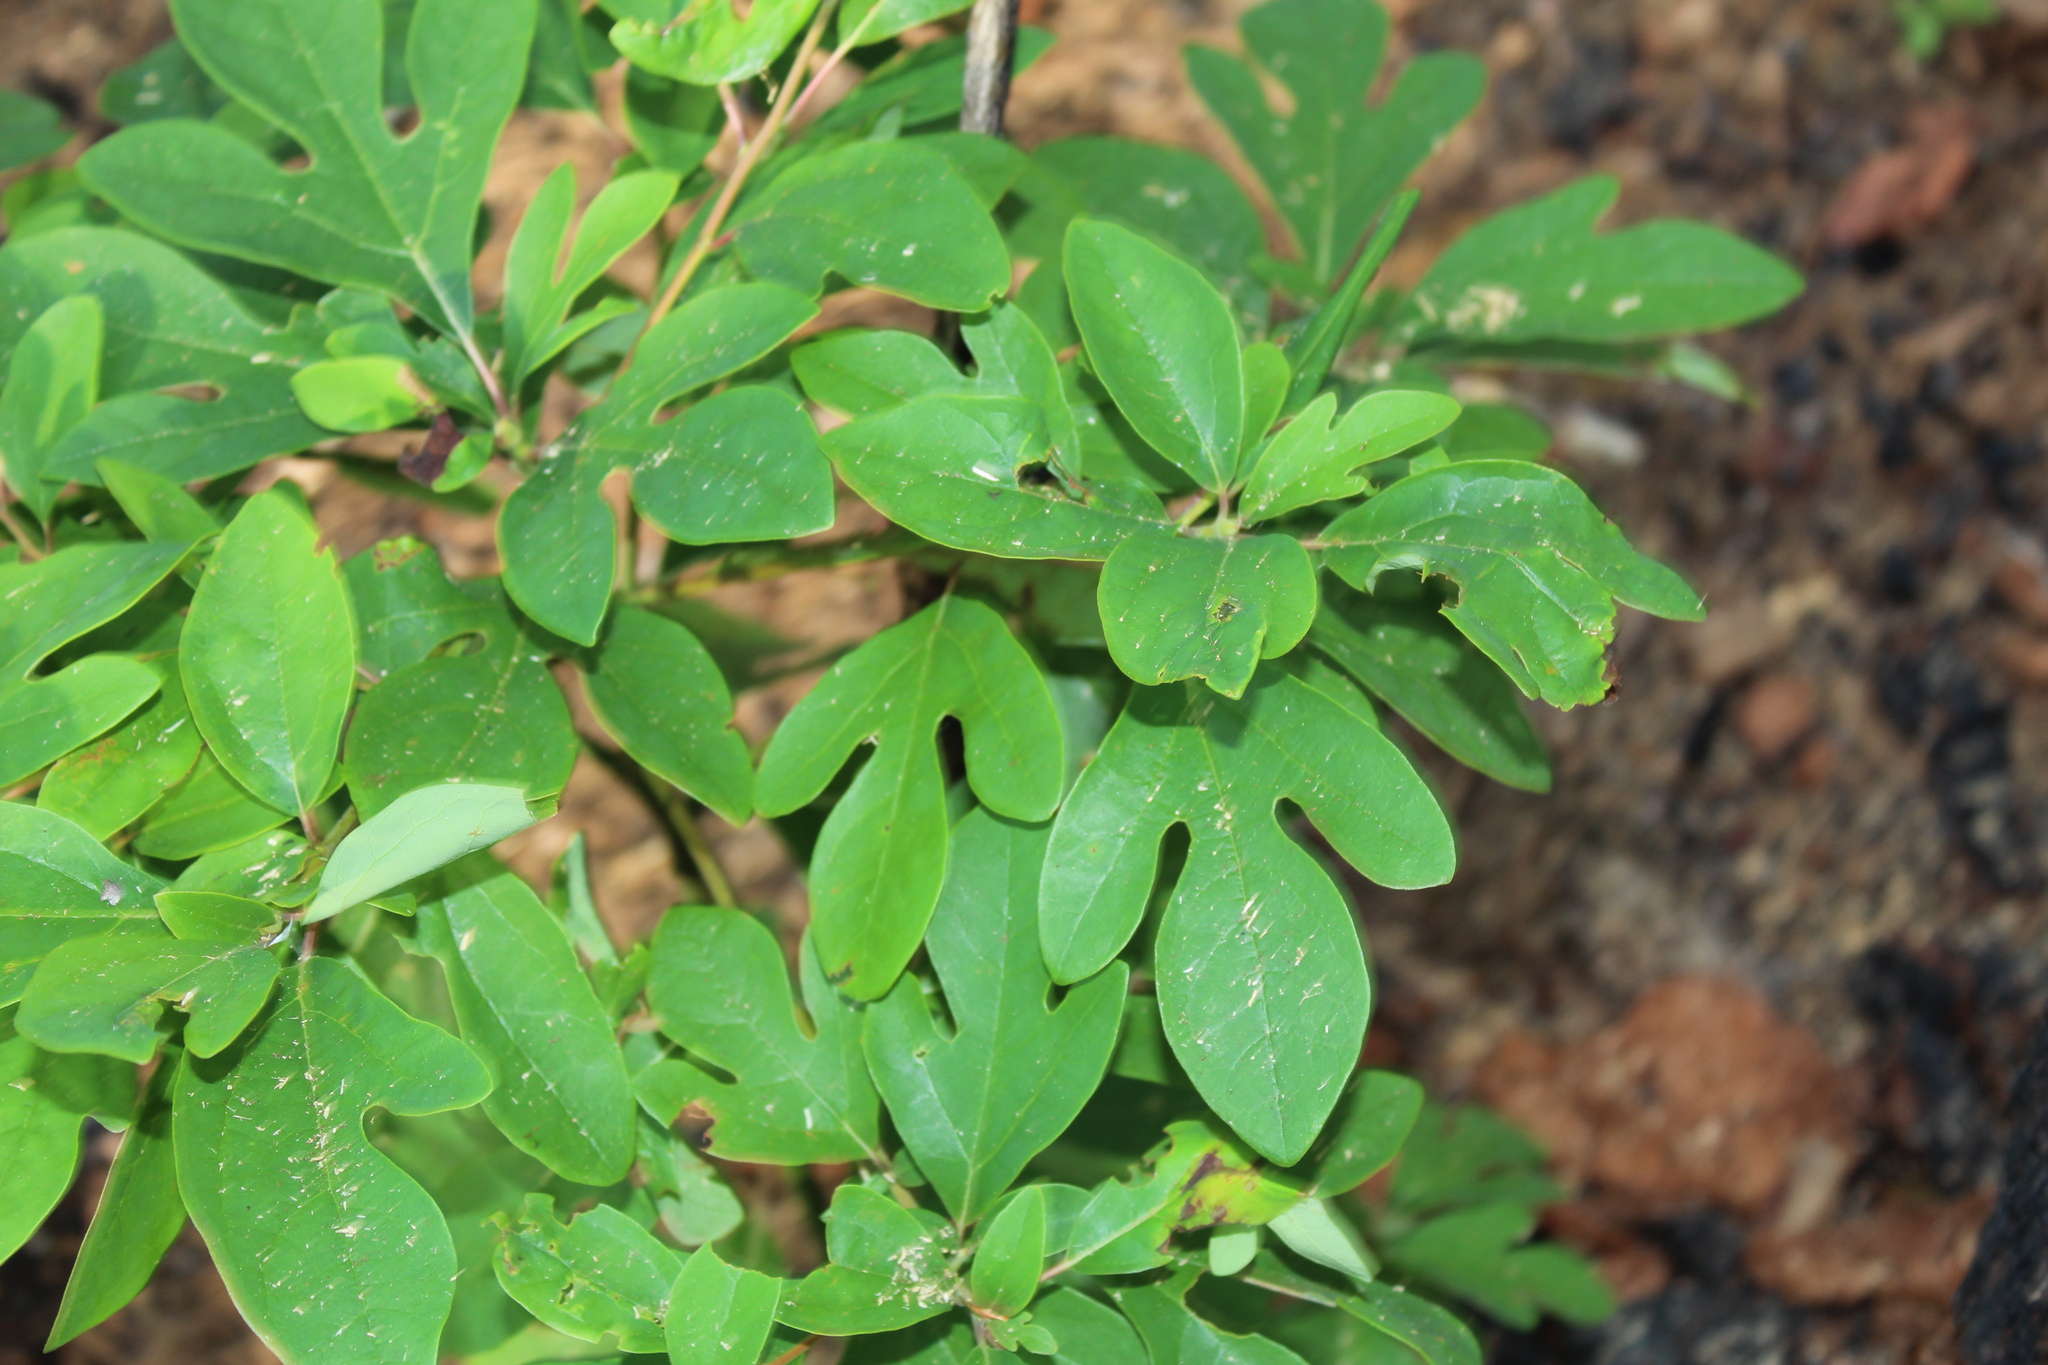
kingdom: Plantae
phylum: Tracheophyta
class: Magnoliopsida
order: Laurales
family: Lauraceae
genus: Sassafras
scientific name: Sassafras albidum
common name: Sassafras
